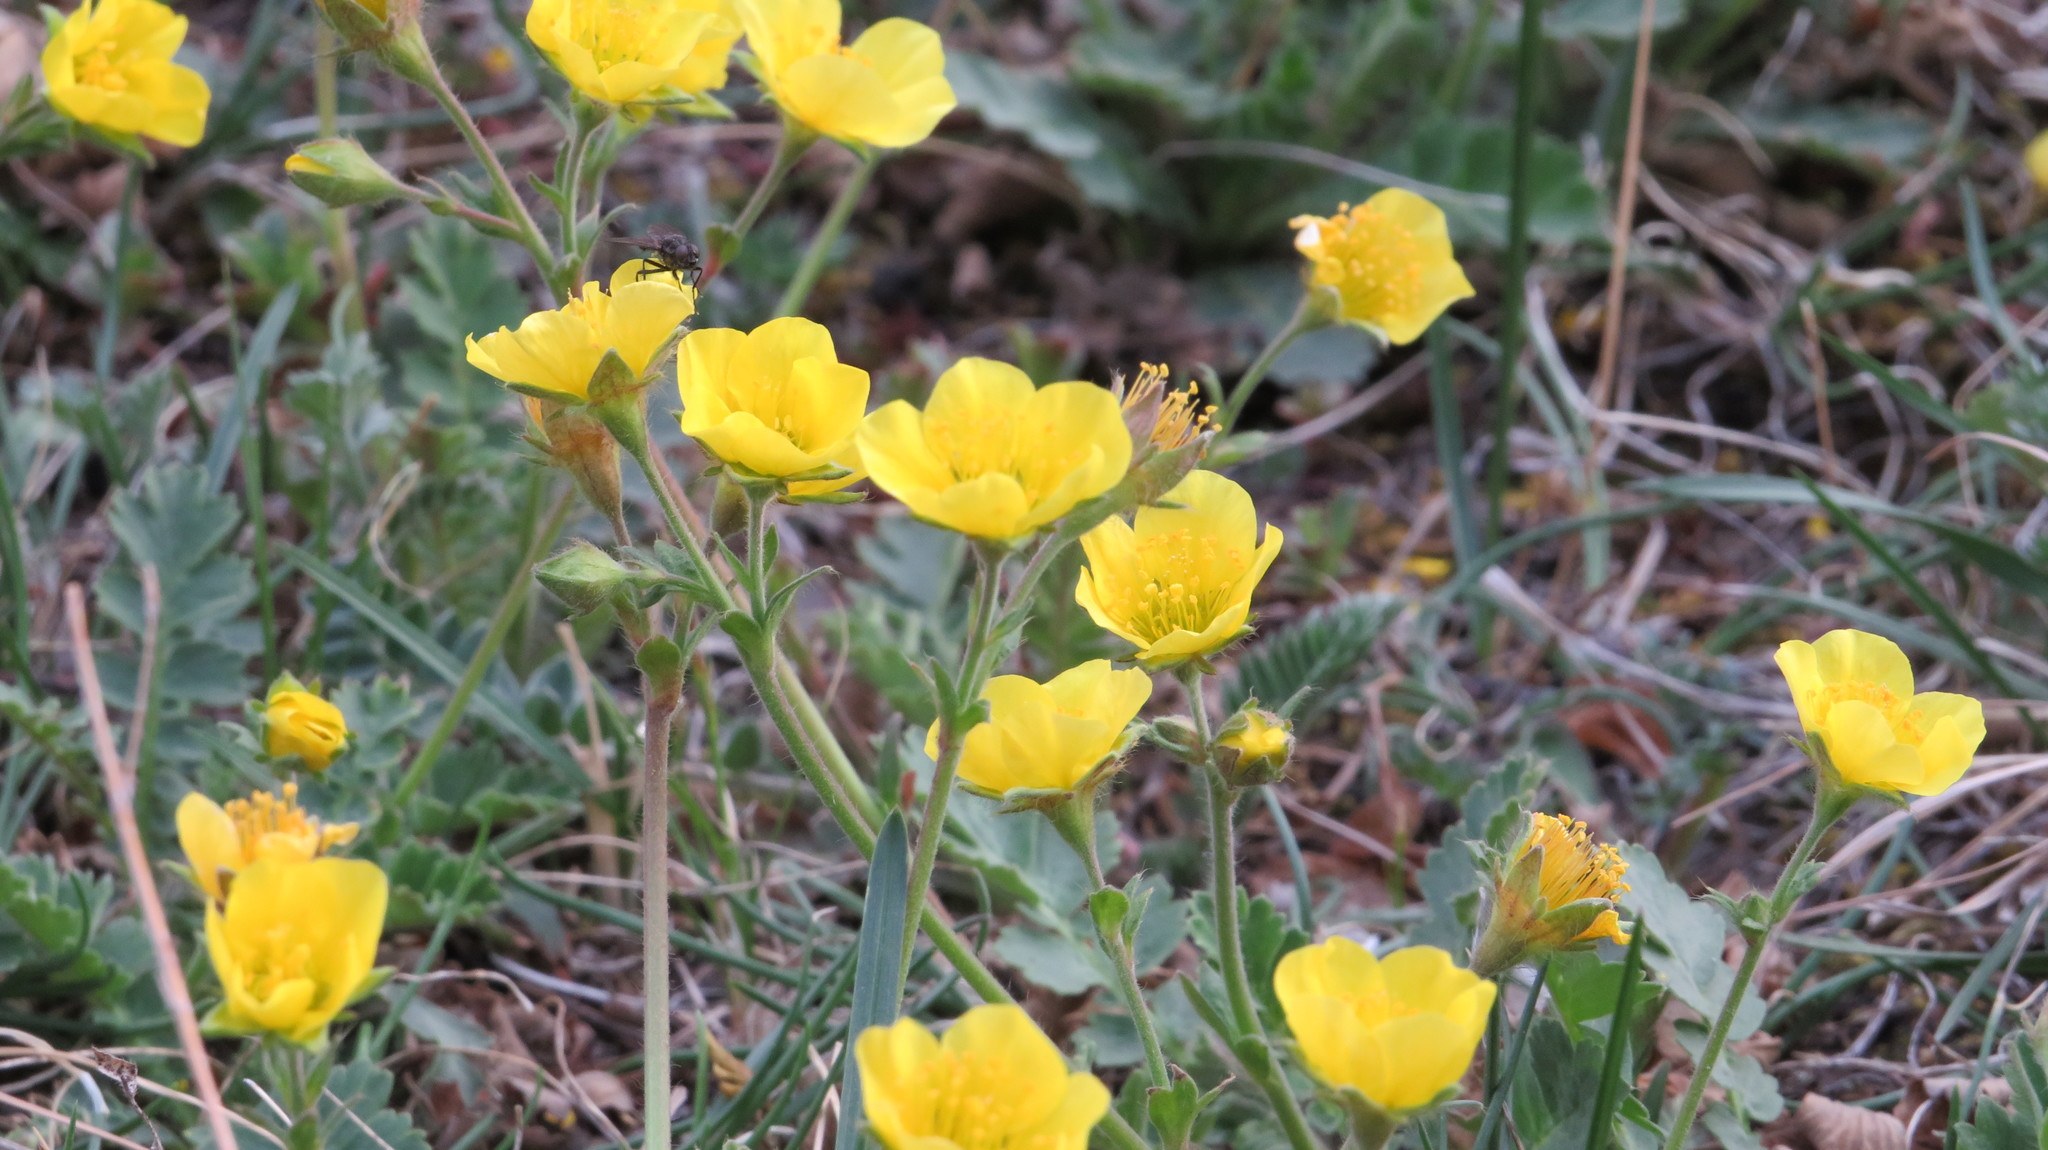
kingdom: Plantae
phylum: Tracheophyta
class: Magnoliopsida
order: Rosales
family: Rosaceae
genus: Geum
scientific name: Geum geoides
